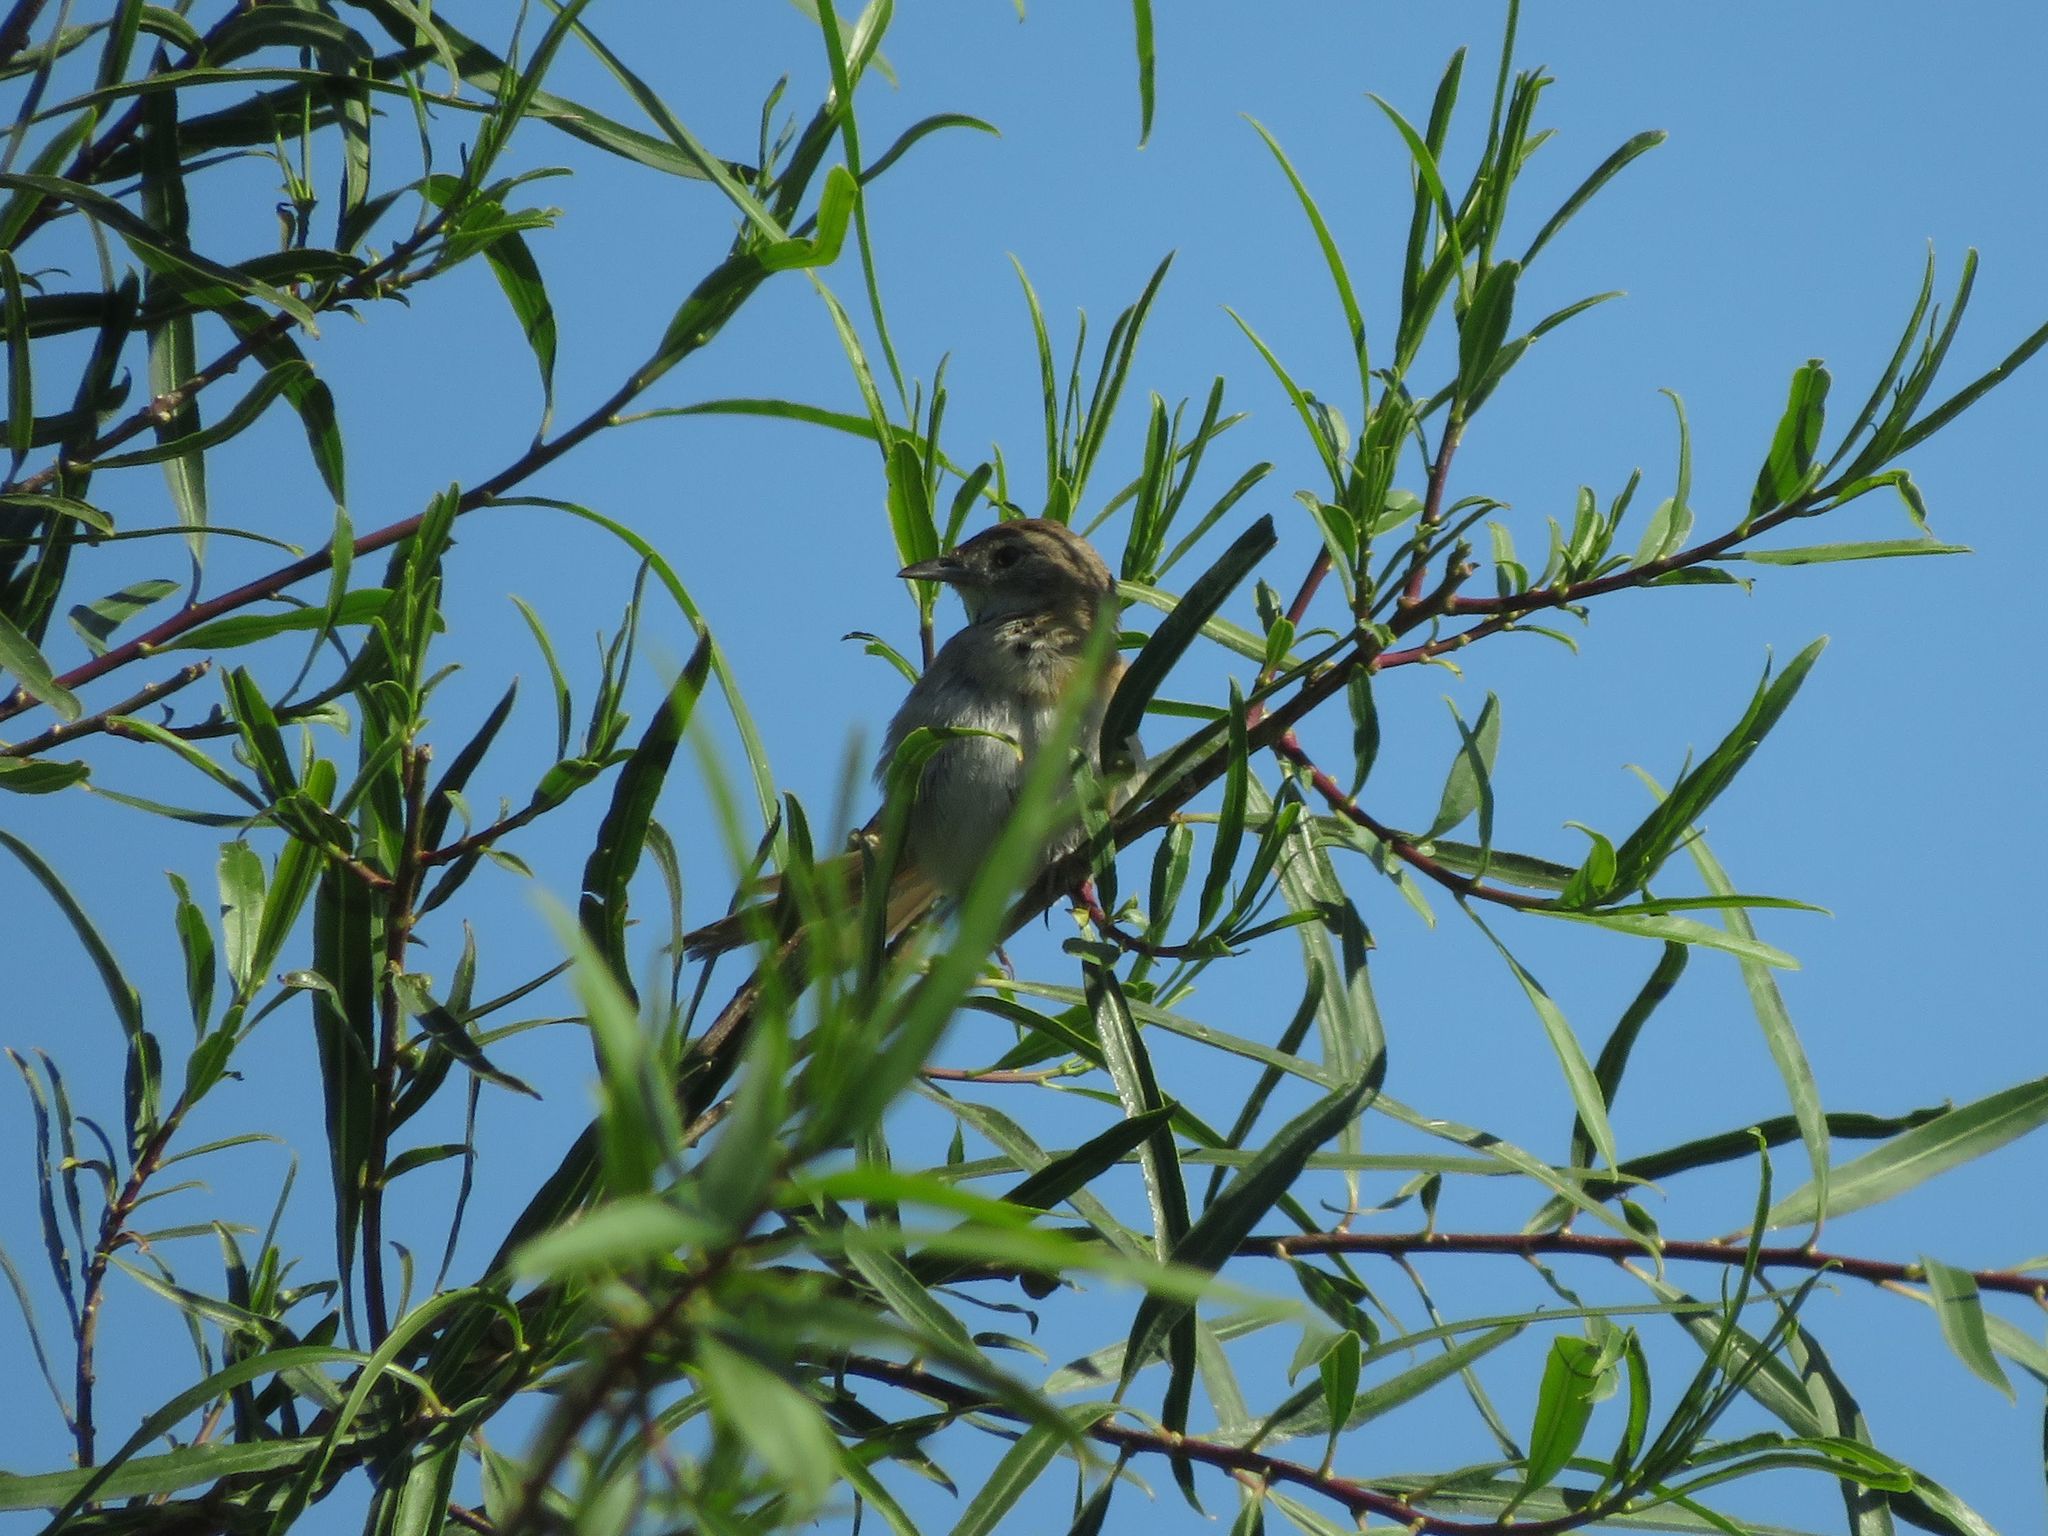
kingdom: Animalia
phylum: Chordata
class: Aves
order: Passeriformes
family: Furnariidae
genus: Schoeniophylax
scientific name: Schoeniophylax phryganophilus
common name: Chotoy spinetail
